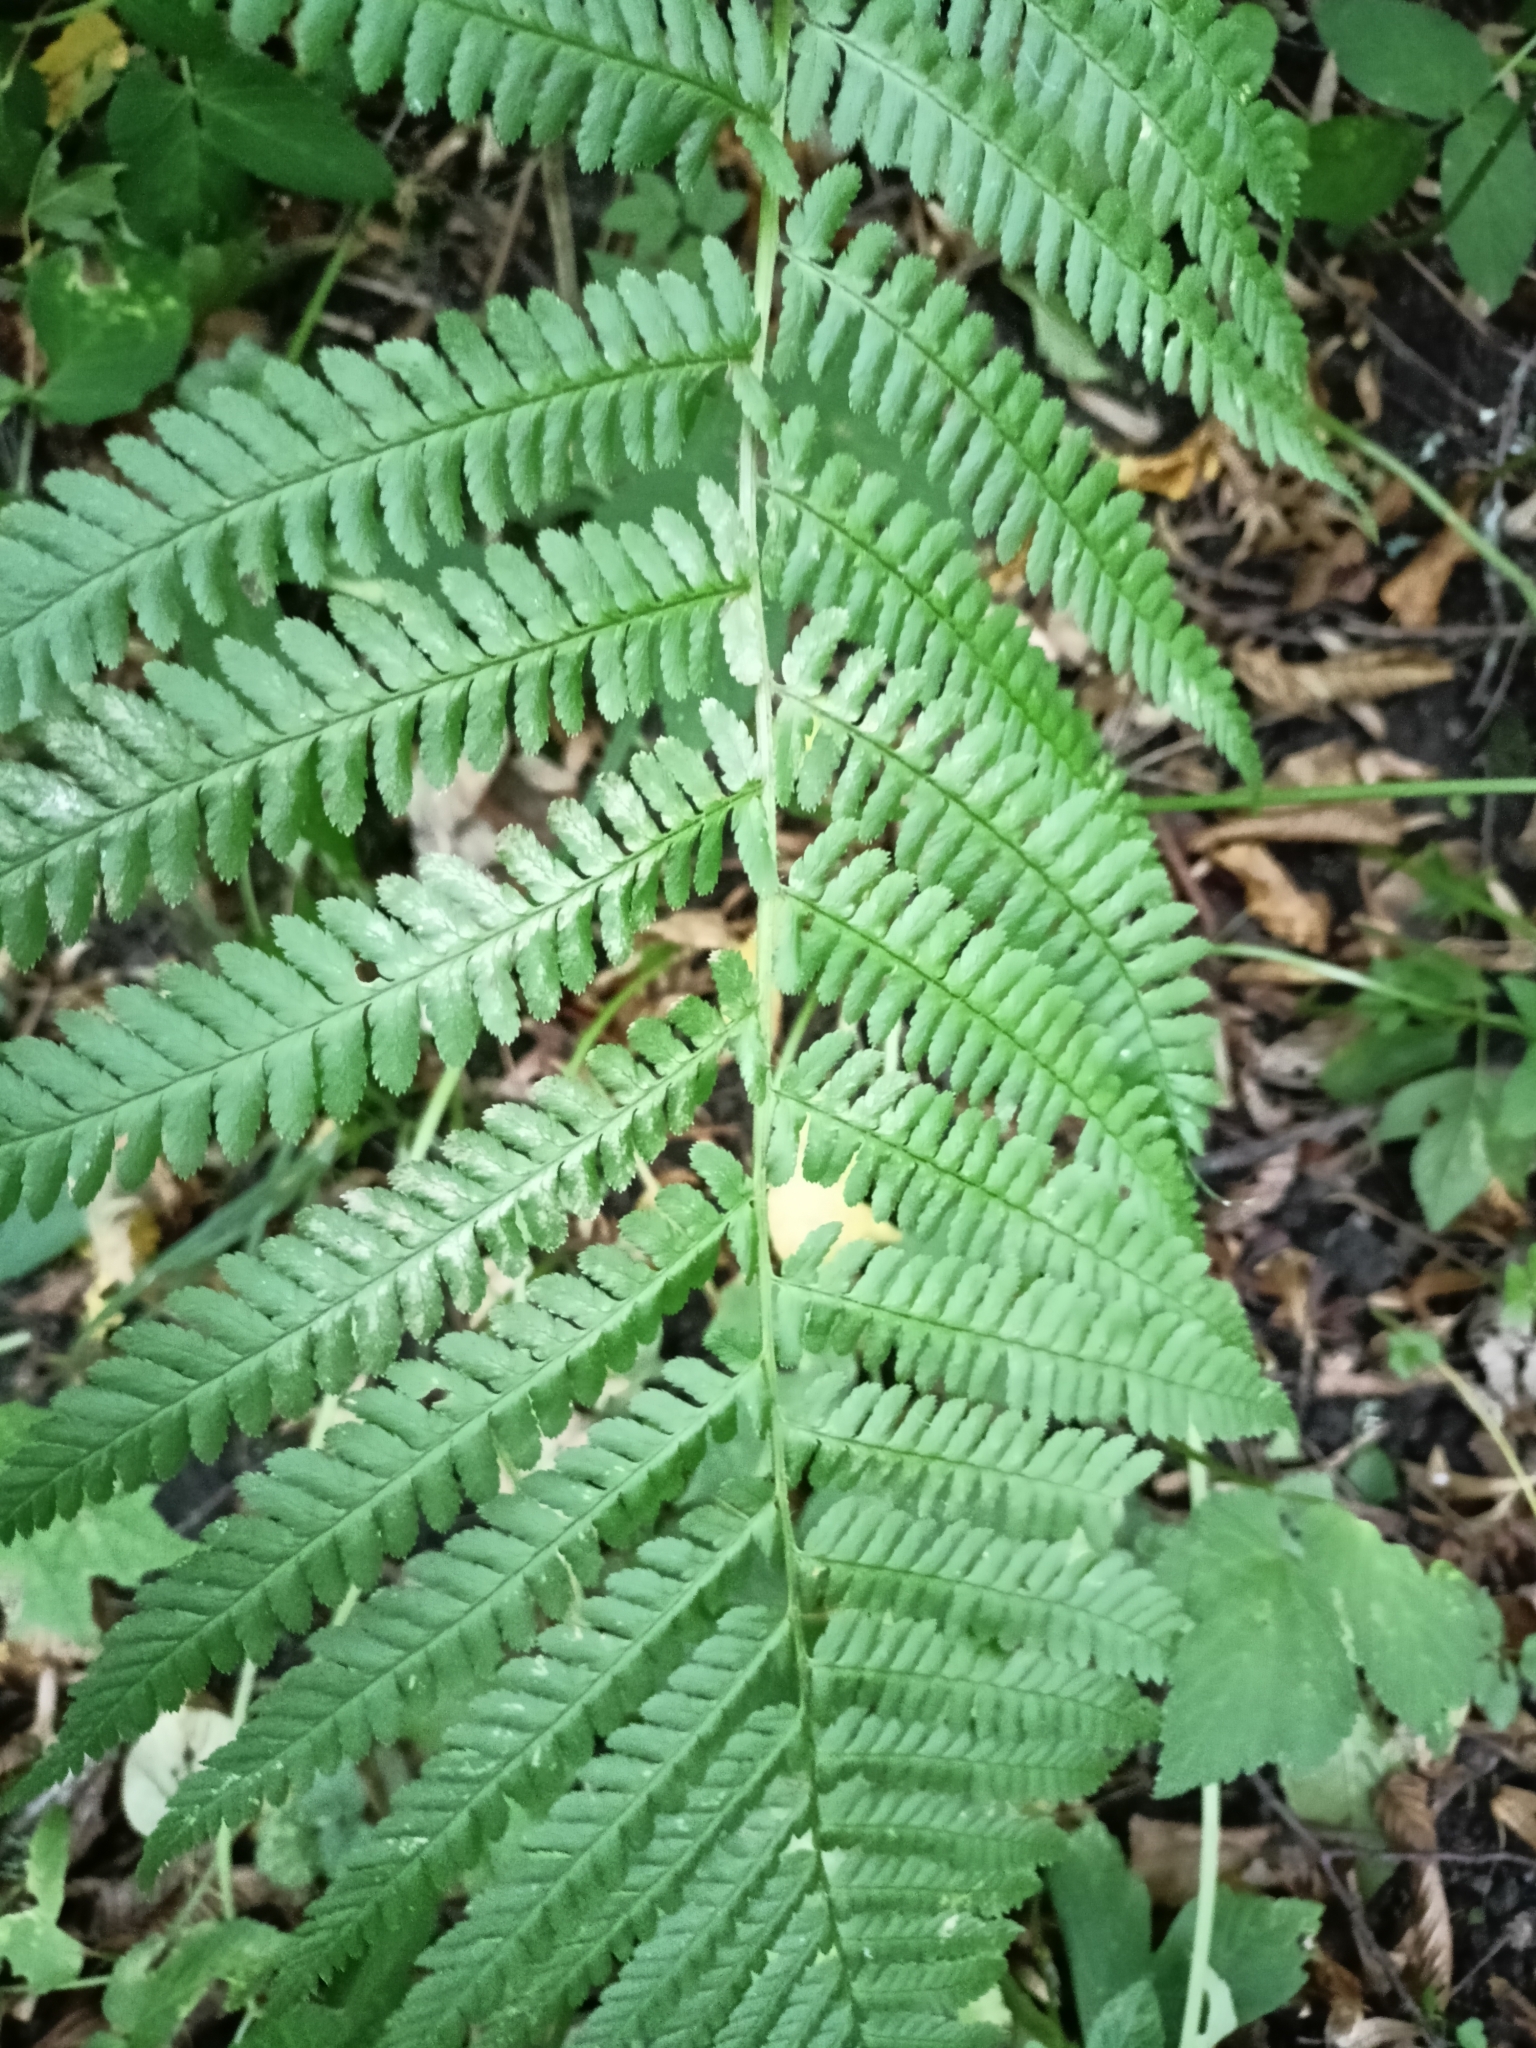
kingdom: Plantae
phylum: Tracheophyta
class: Polypodiopsida
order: Polypodiales
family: Dryopteridaceae
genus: Dryopteris
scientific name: Dryopteris filix-mas
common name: Male fern
